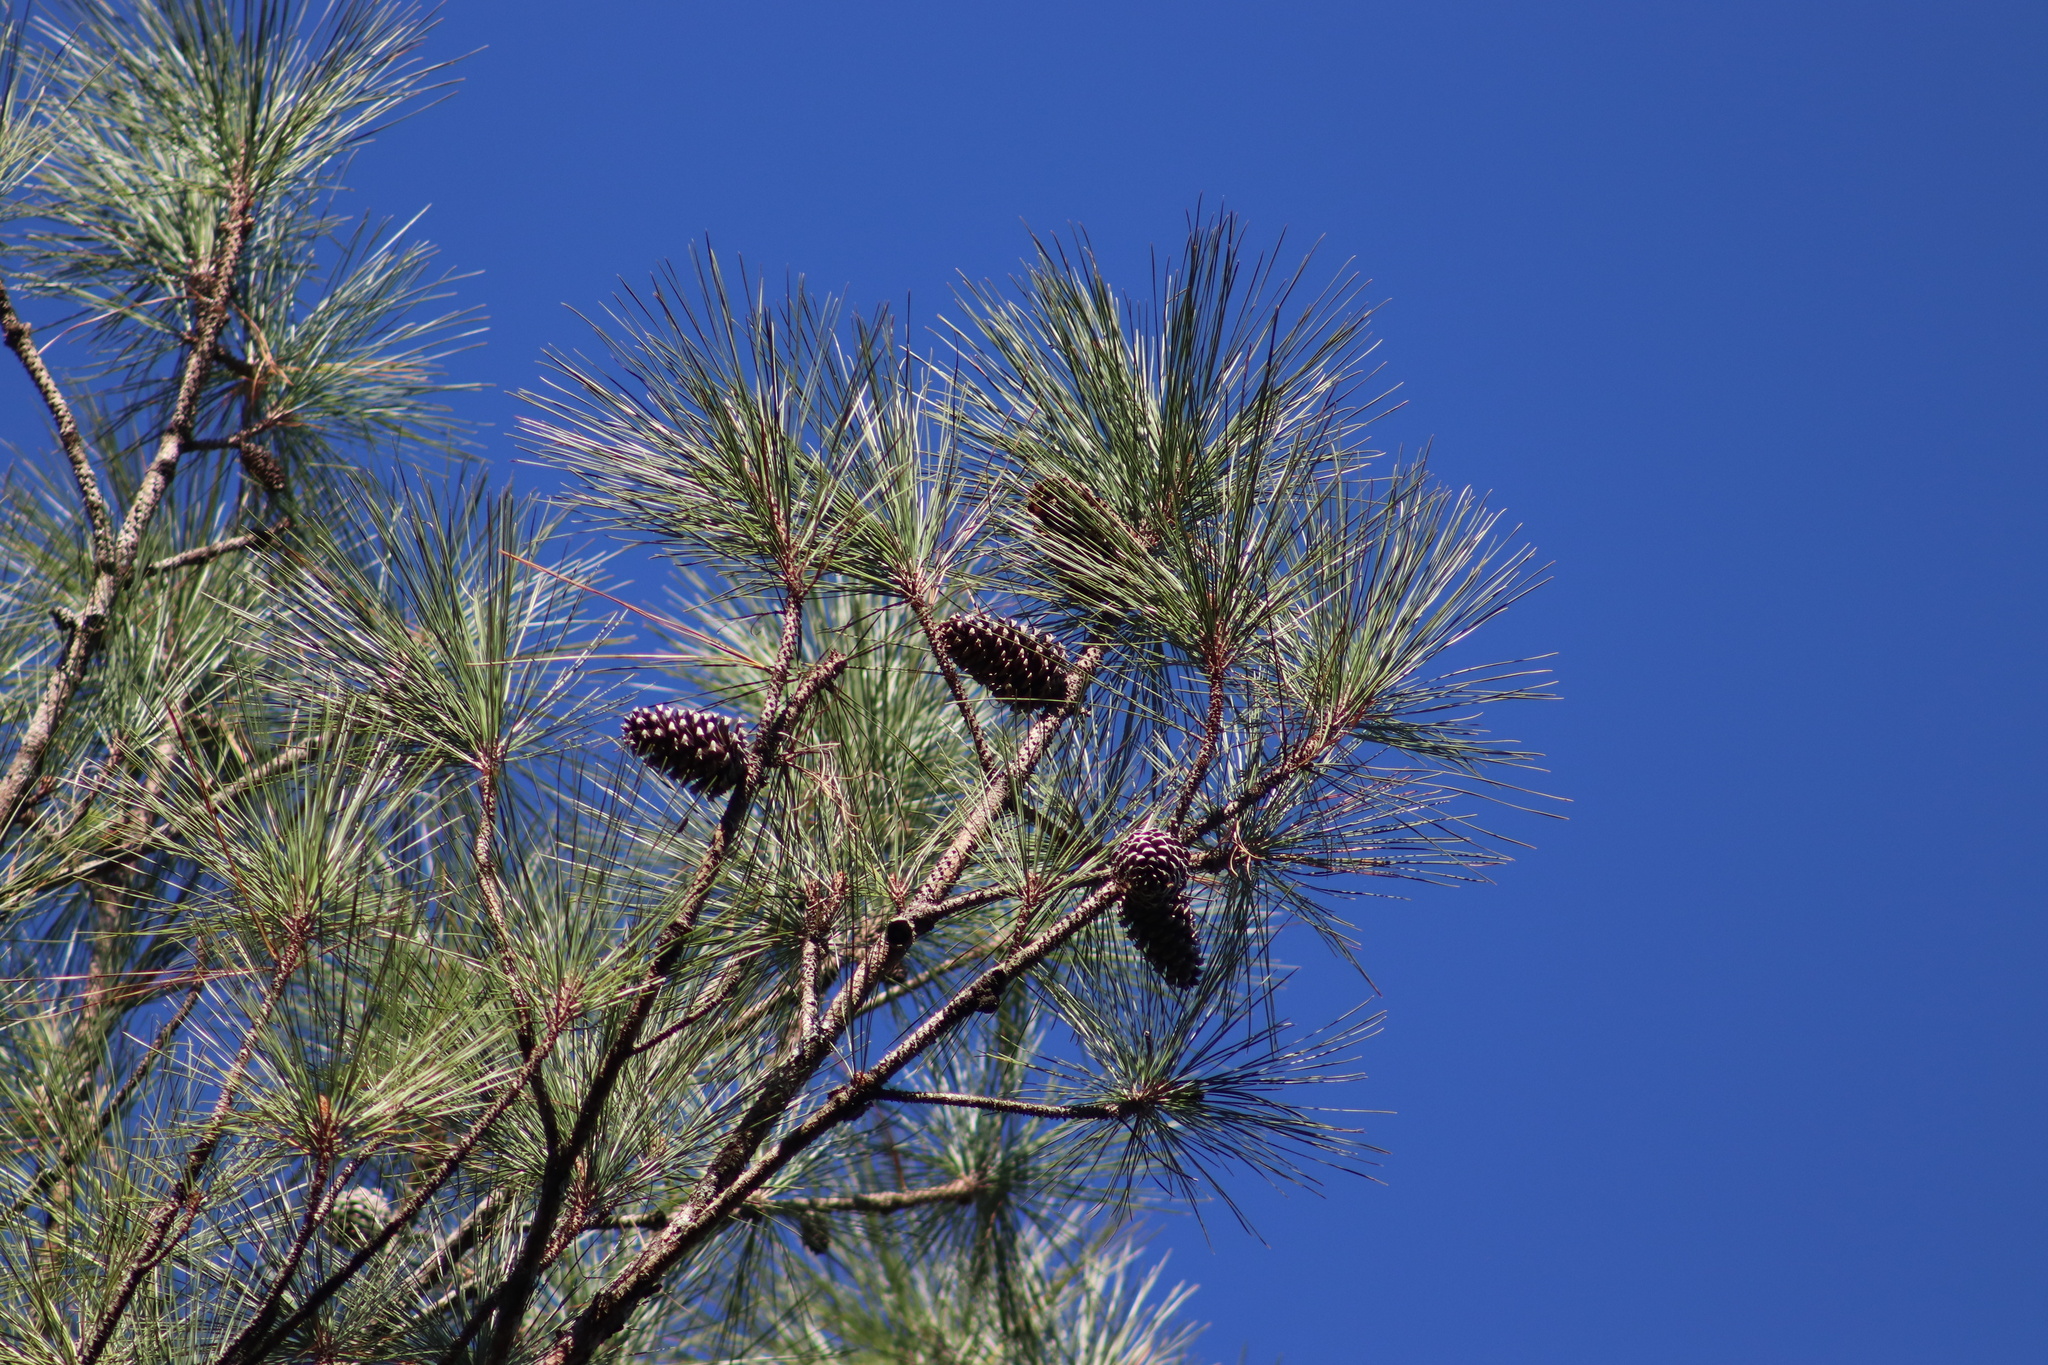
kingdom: Plantae
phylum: Tracheophyta
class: Pinopsida
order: Pinales
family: Pinaceae
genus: Pinus
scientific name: Pinus taeda
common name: Loblolly pine
